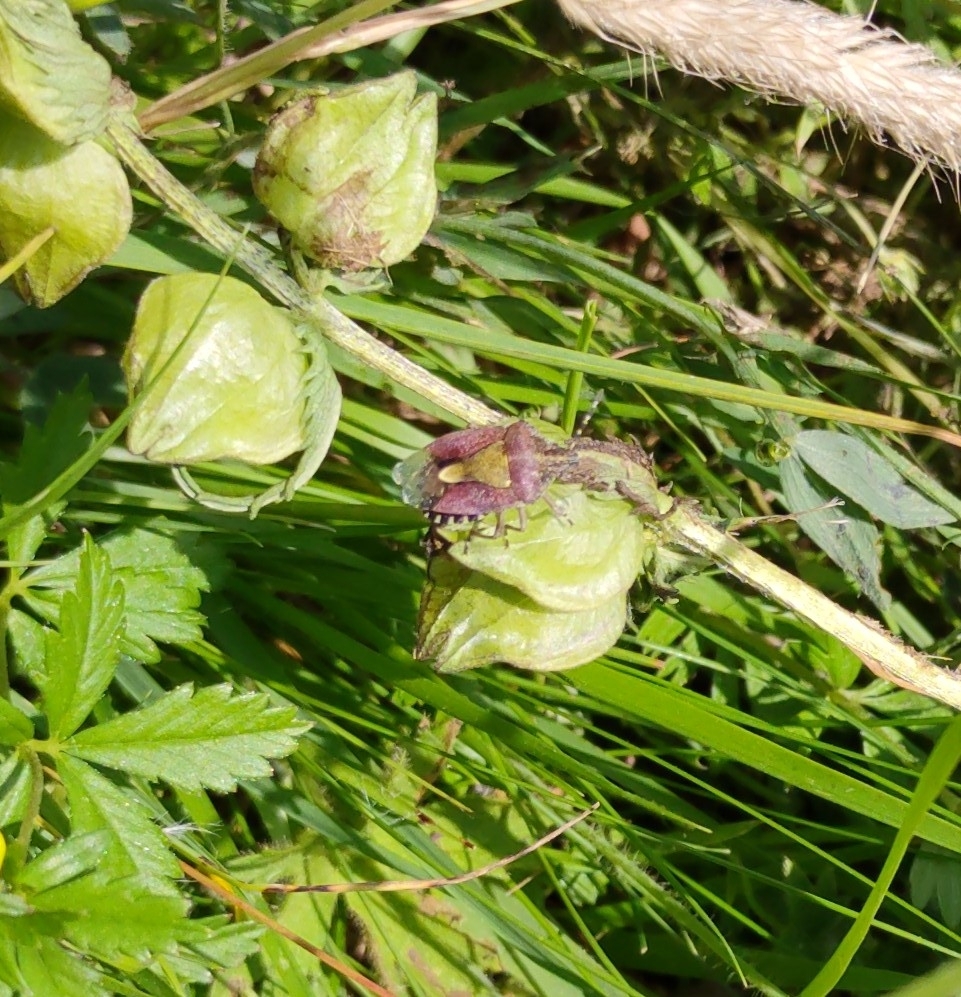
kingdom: Animalia
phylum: Arthropoda
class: Insecta
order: Hemiptera
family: Pentatomidae
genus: Dolycoris
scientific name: Dolycoris baccarum
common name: Sloe bug
